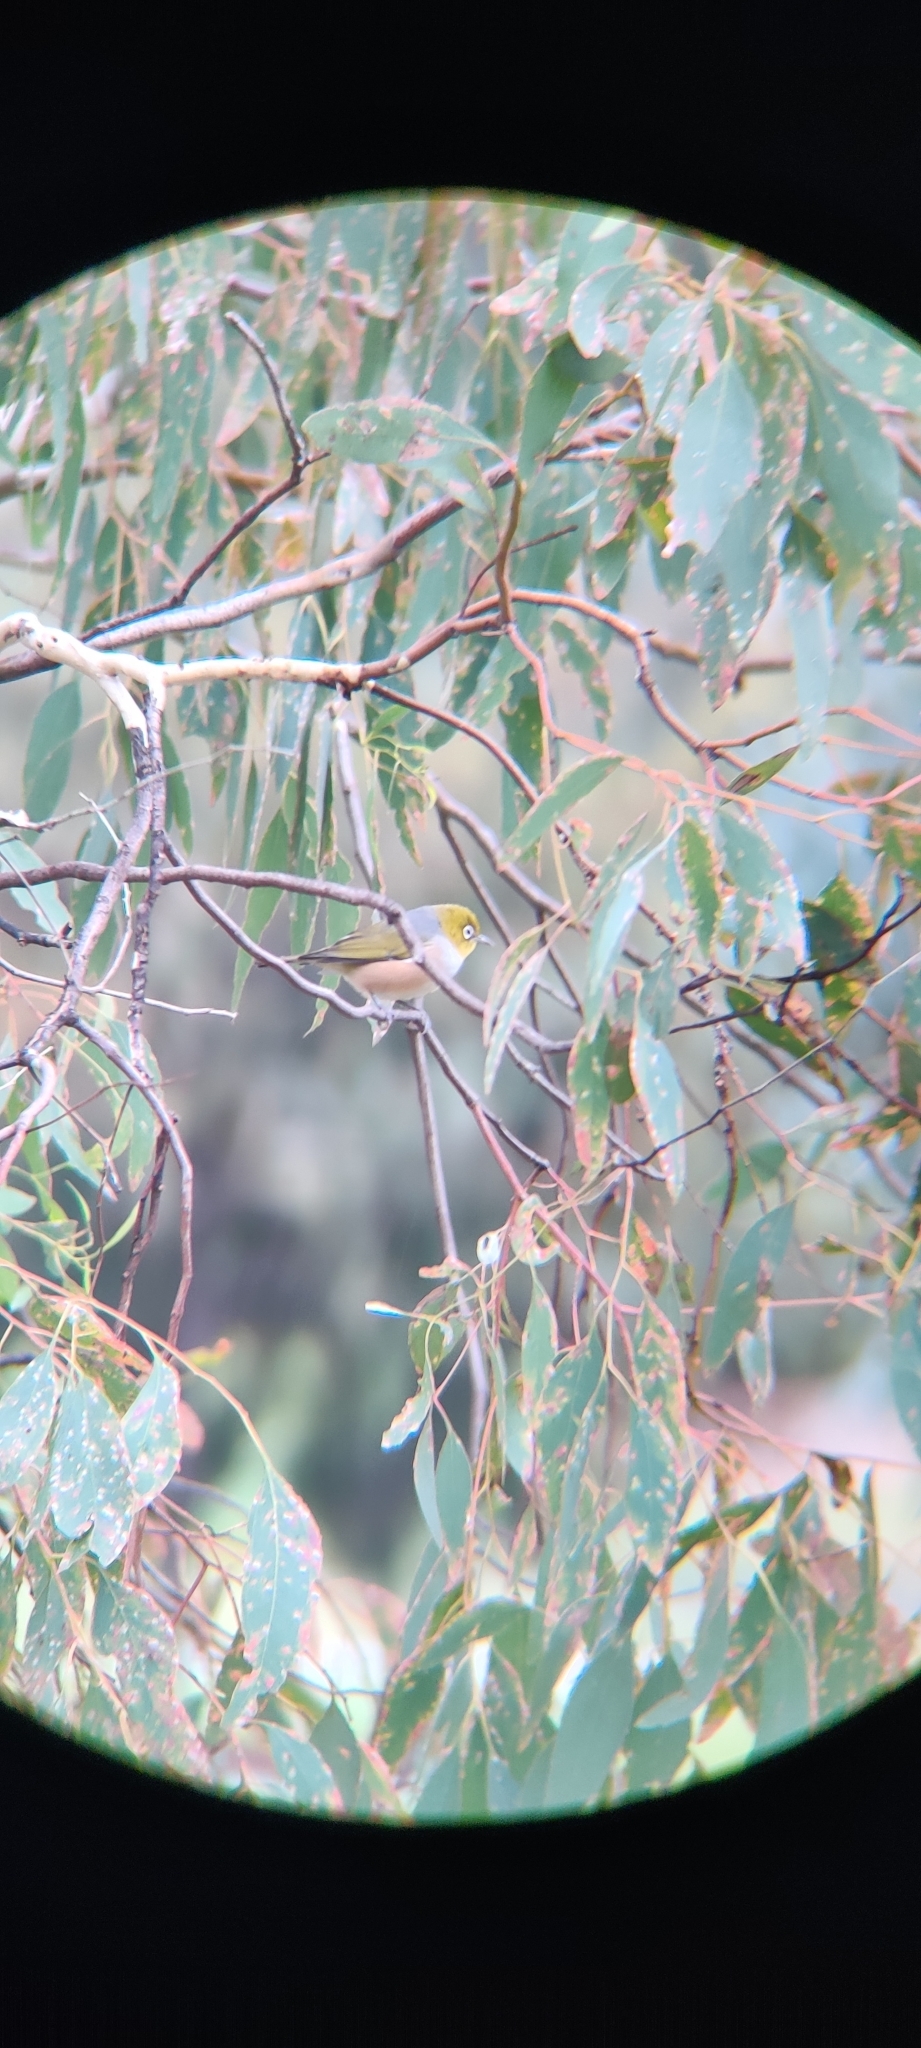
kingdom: Animalia
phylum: Chordata
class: Aves
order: Passeriformes
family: Zosteropidae
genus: Zosterops
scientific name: Zosterops lateralis
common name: Silvereye
